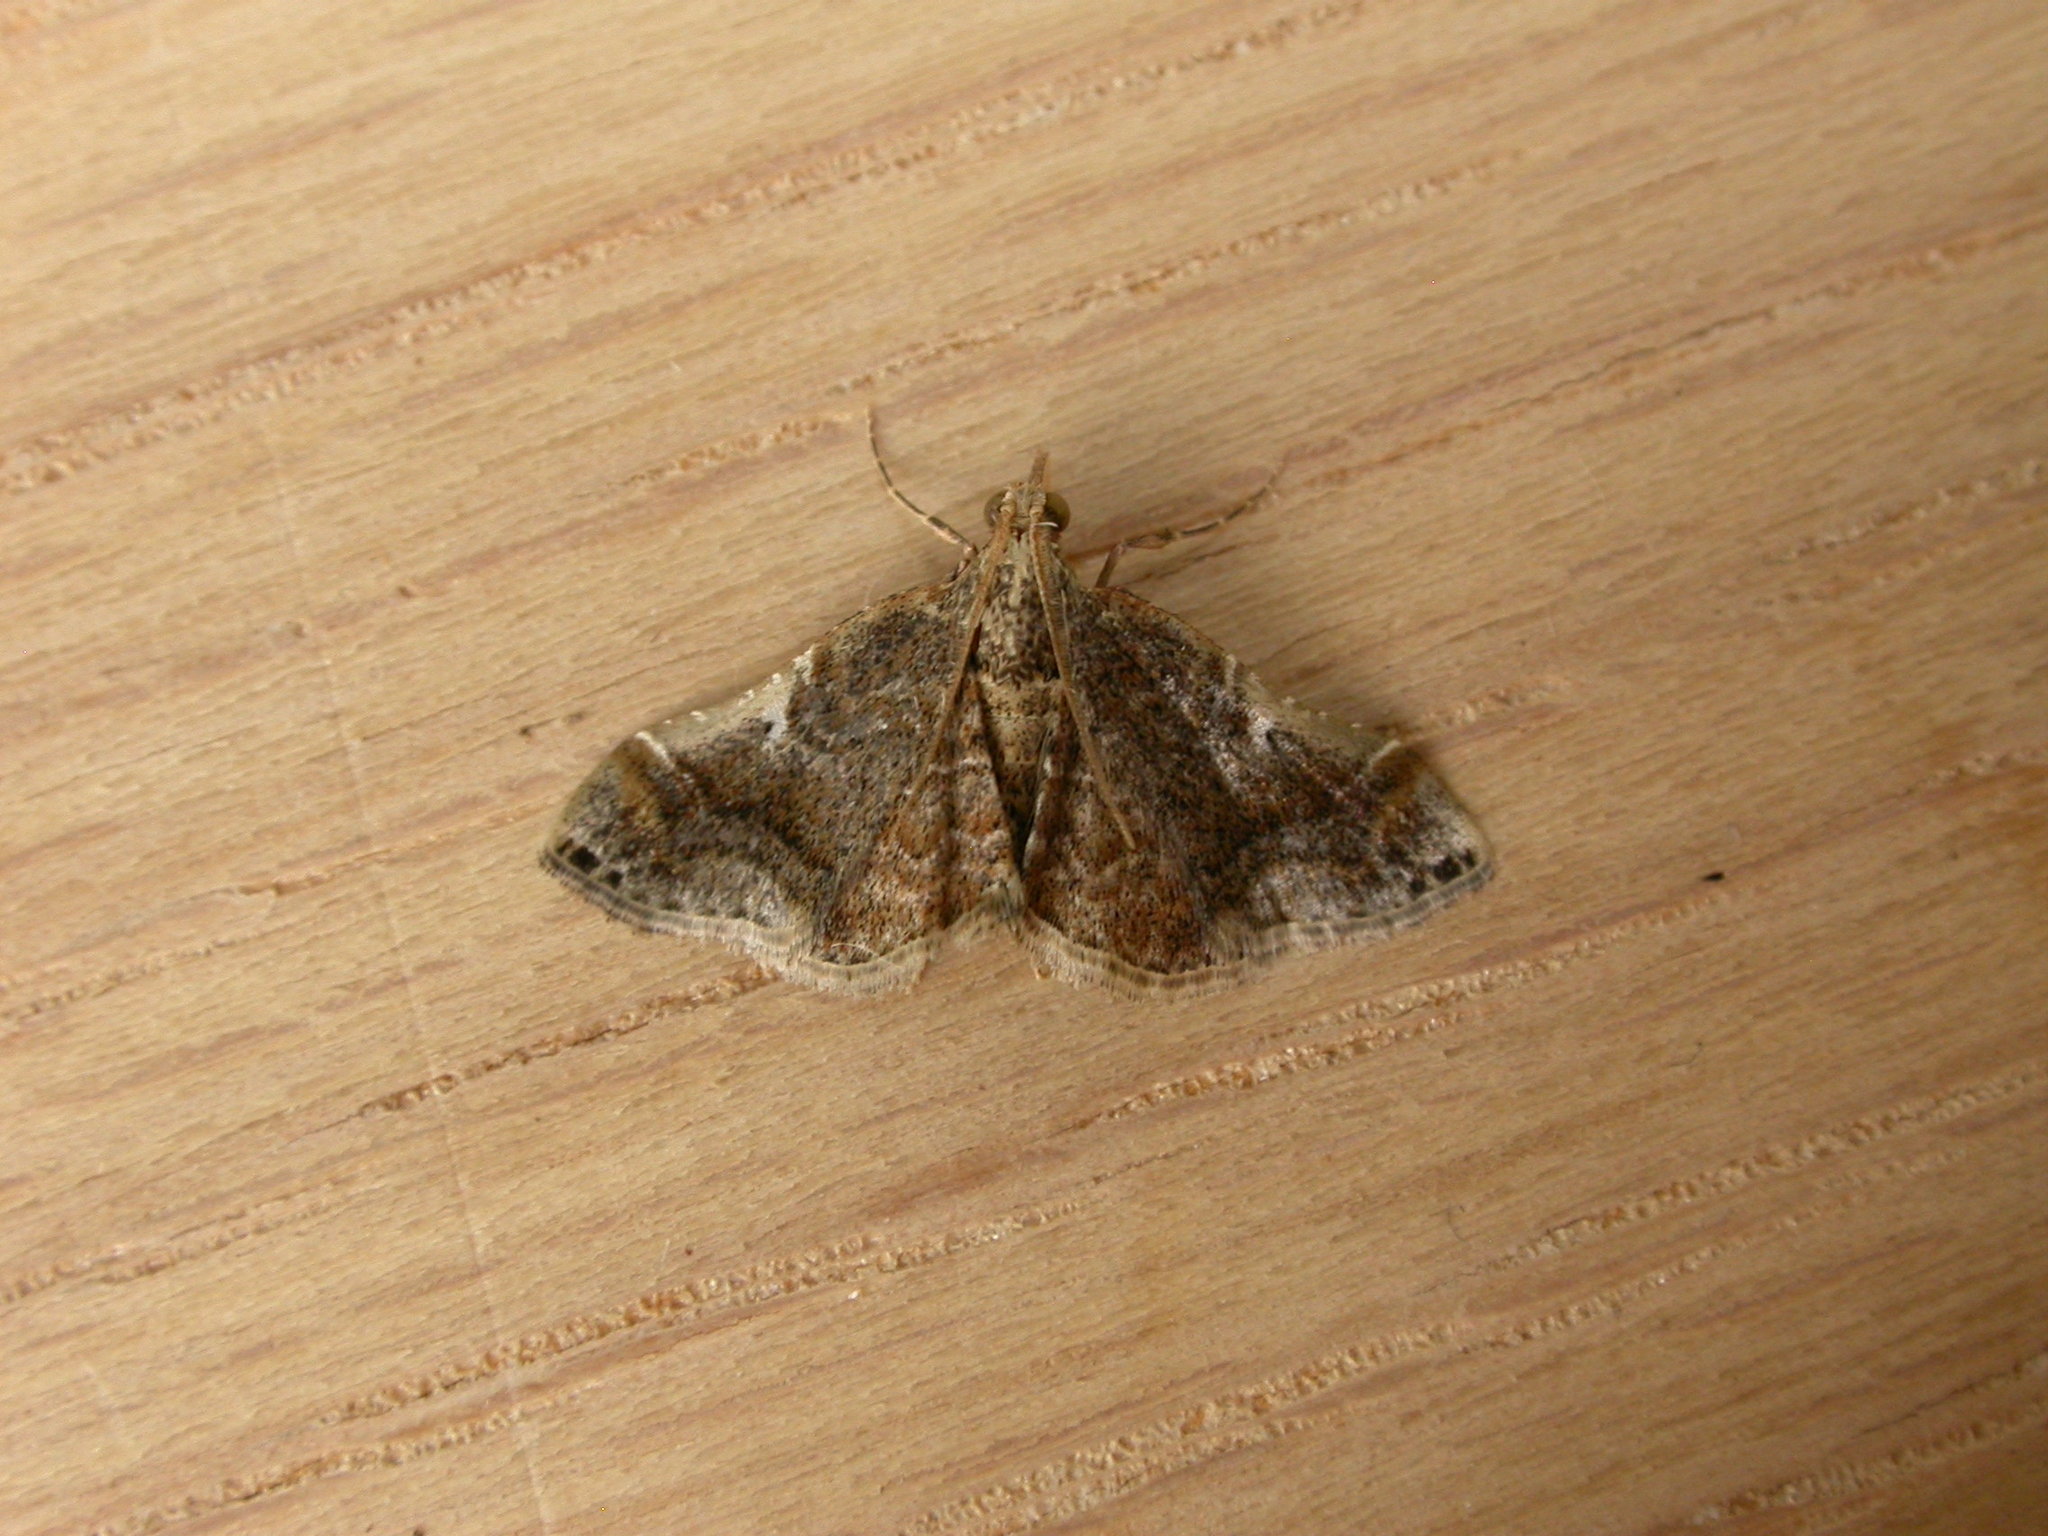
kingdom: Animalia
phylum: Arthropoda
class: Insecta
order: Lepidoptera
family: Pyralidae
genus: Scenedra
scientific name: Scenedra decoratalis
